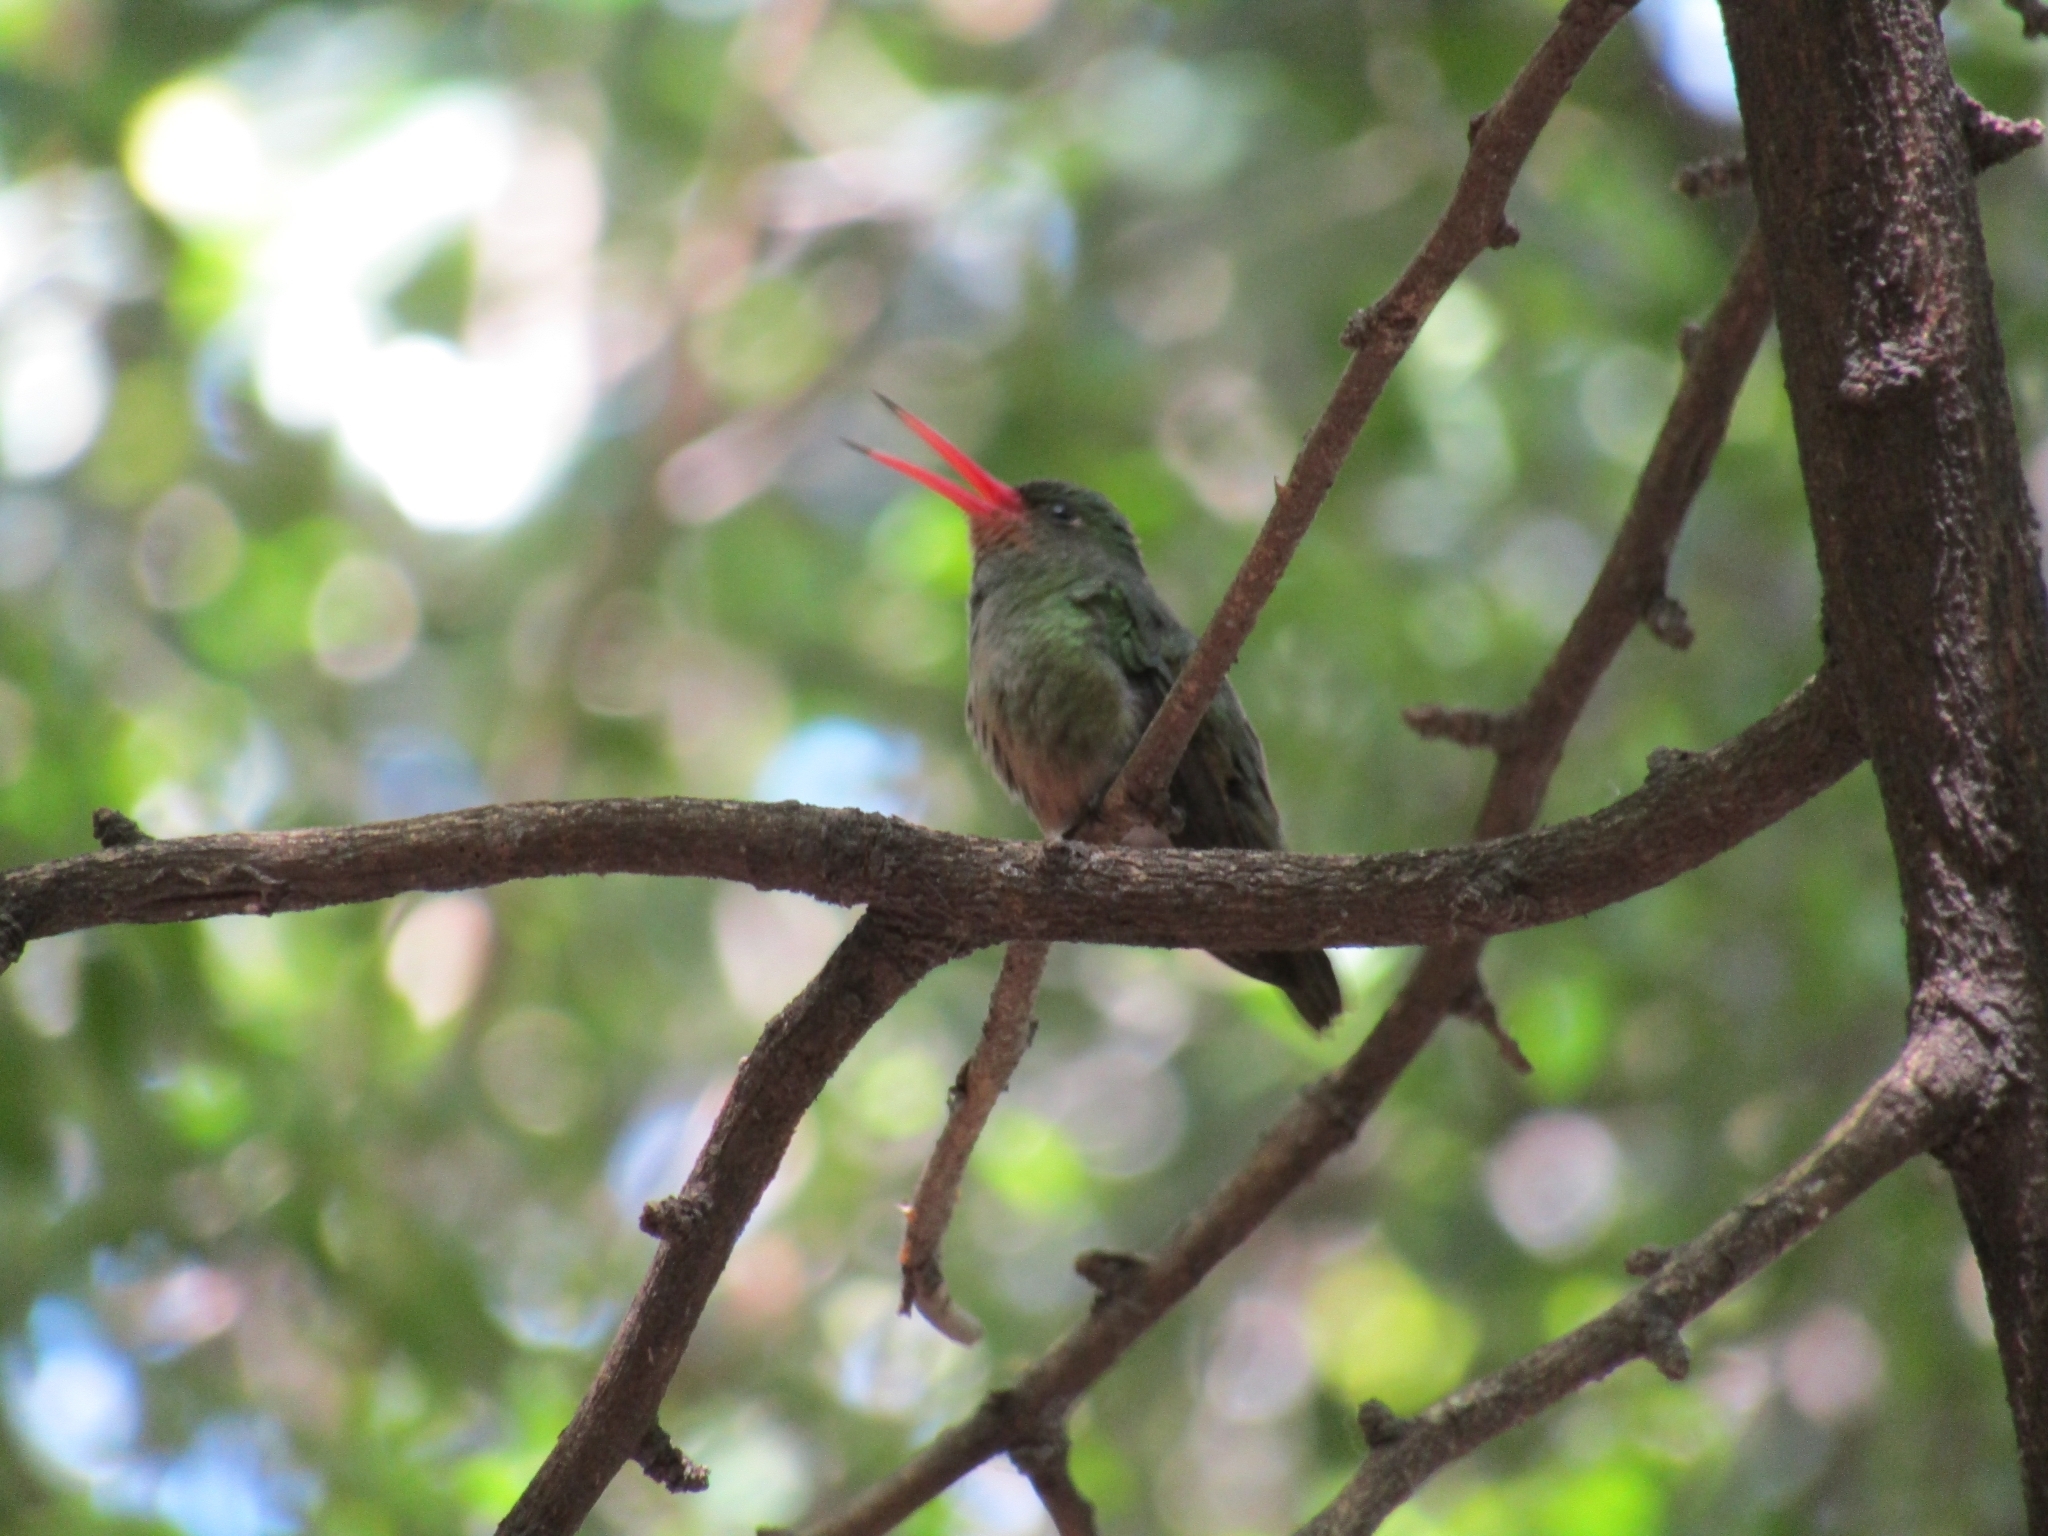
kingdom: Animalia
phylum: Chordata
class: Aves
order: Apodiformes
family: Trochilidae
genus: Hylocharis
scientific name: Hylocharis chrysura
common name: Gilded sapphire
